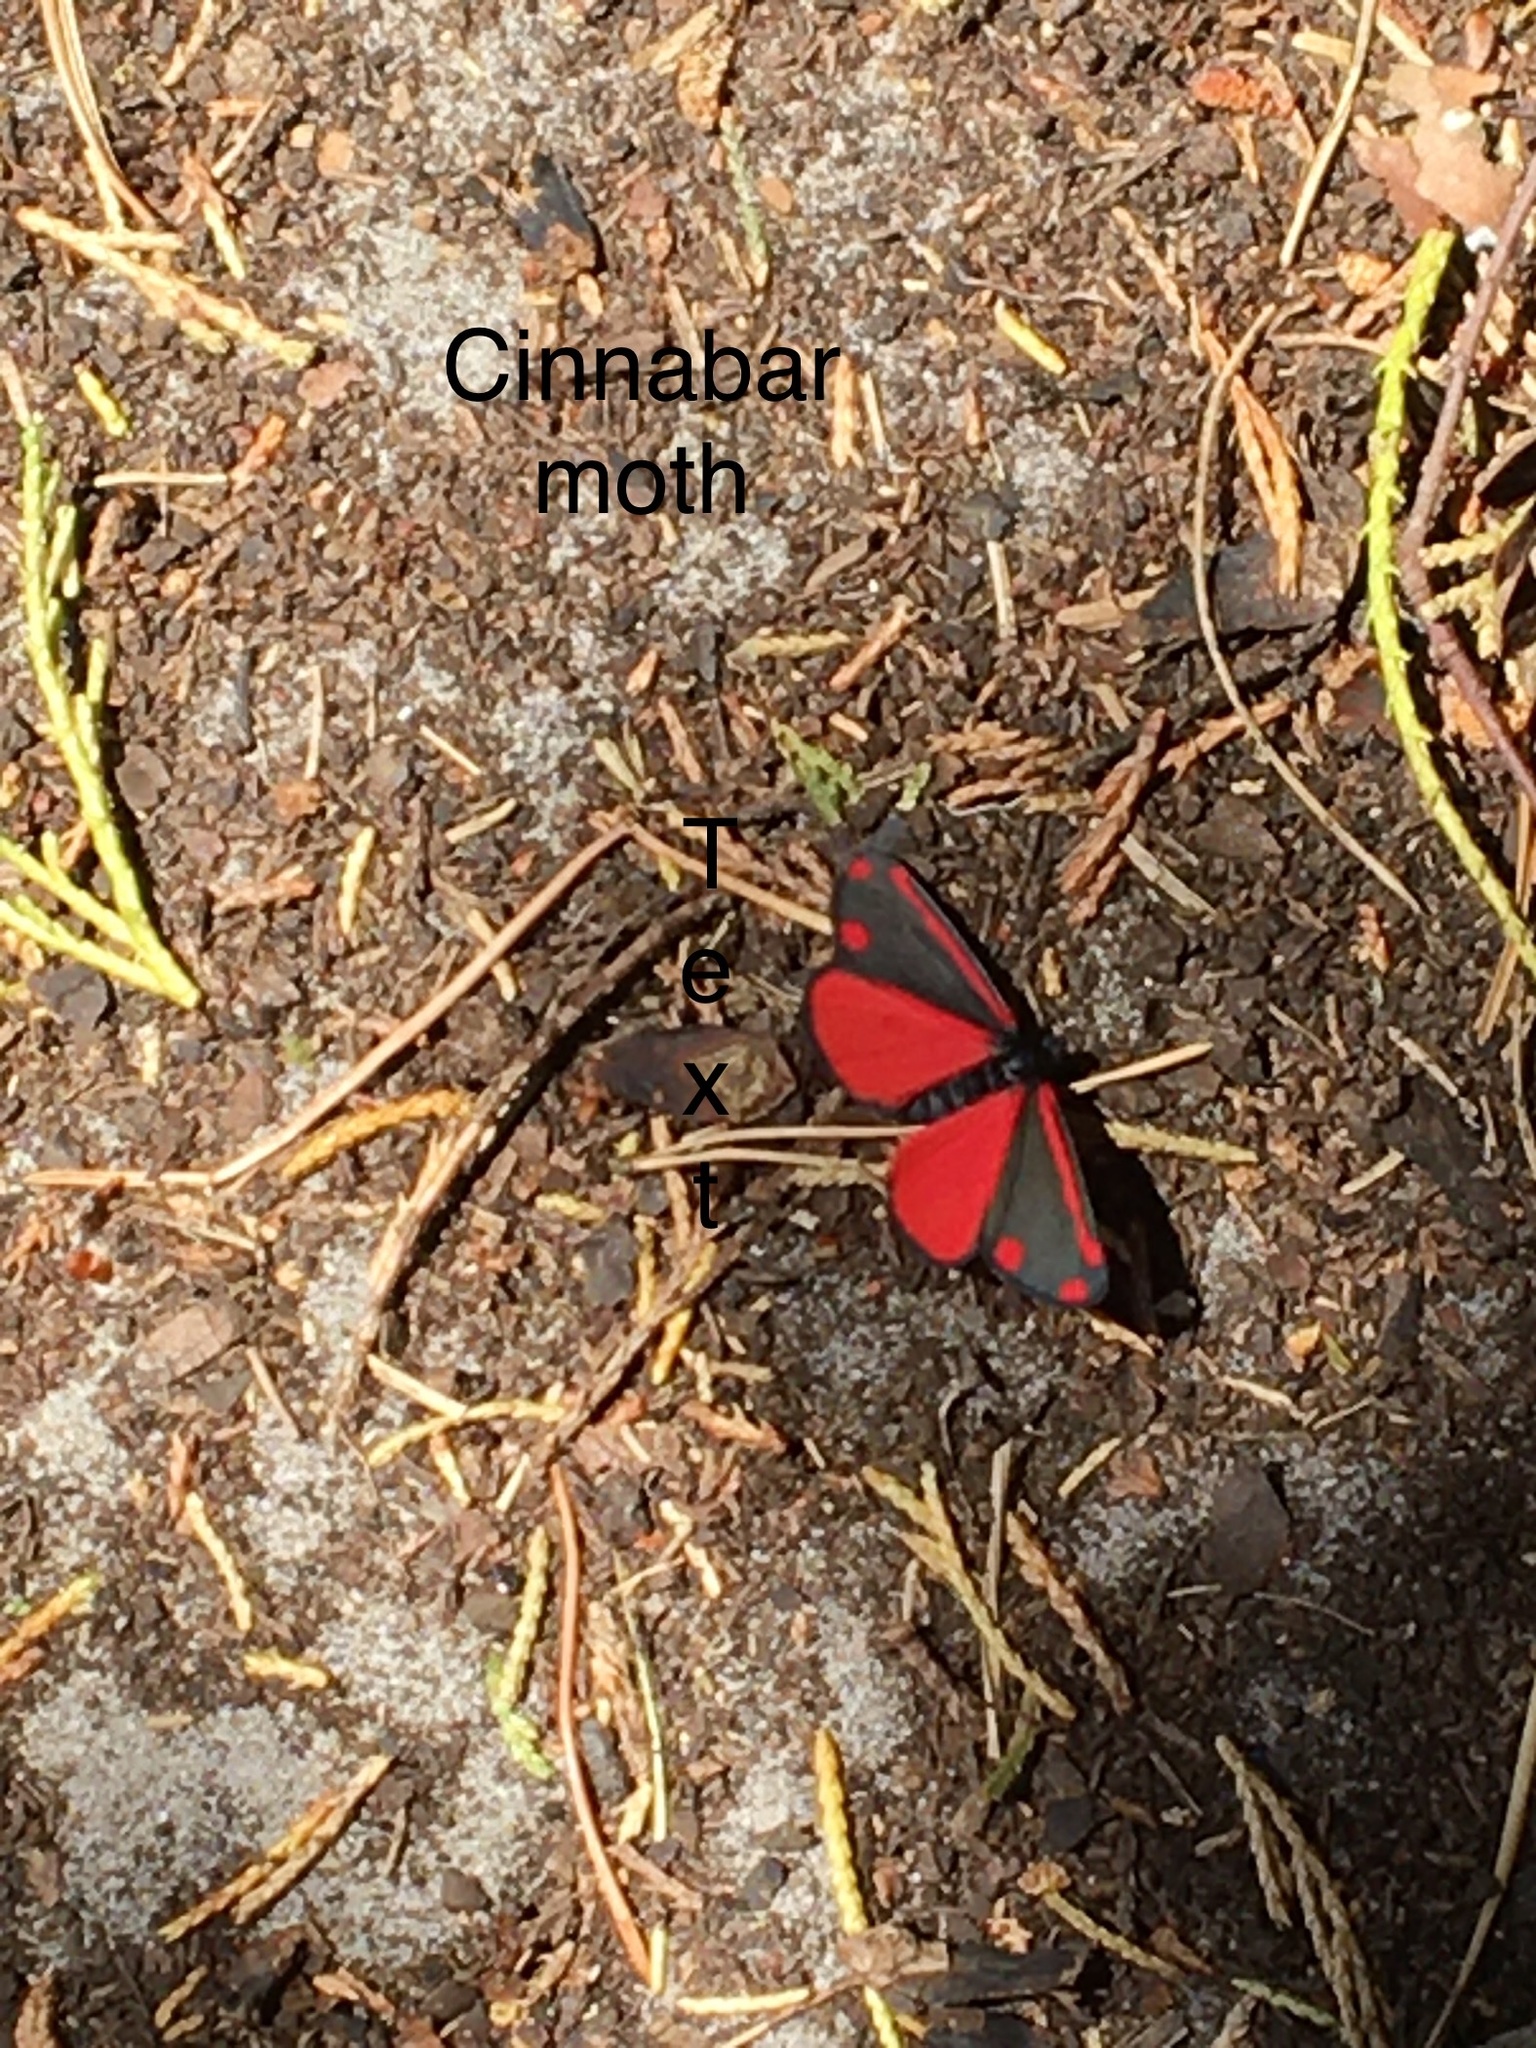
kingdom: Animalia
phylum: Arthropoda
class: Insecta
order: Lepidoptera
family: Erebidae
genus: Tyria
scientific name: Tyria jacobaeae
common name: Cinnabar
